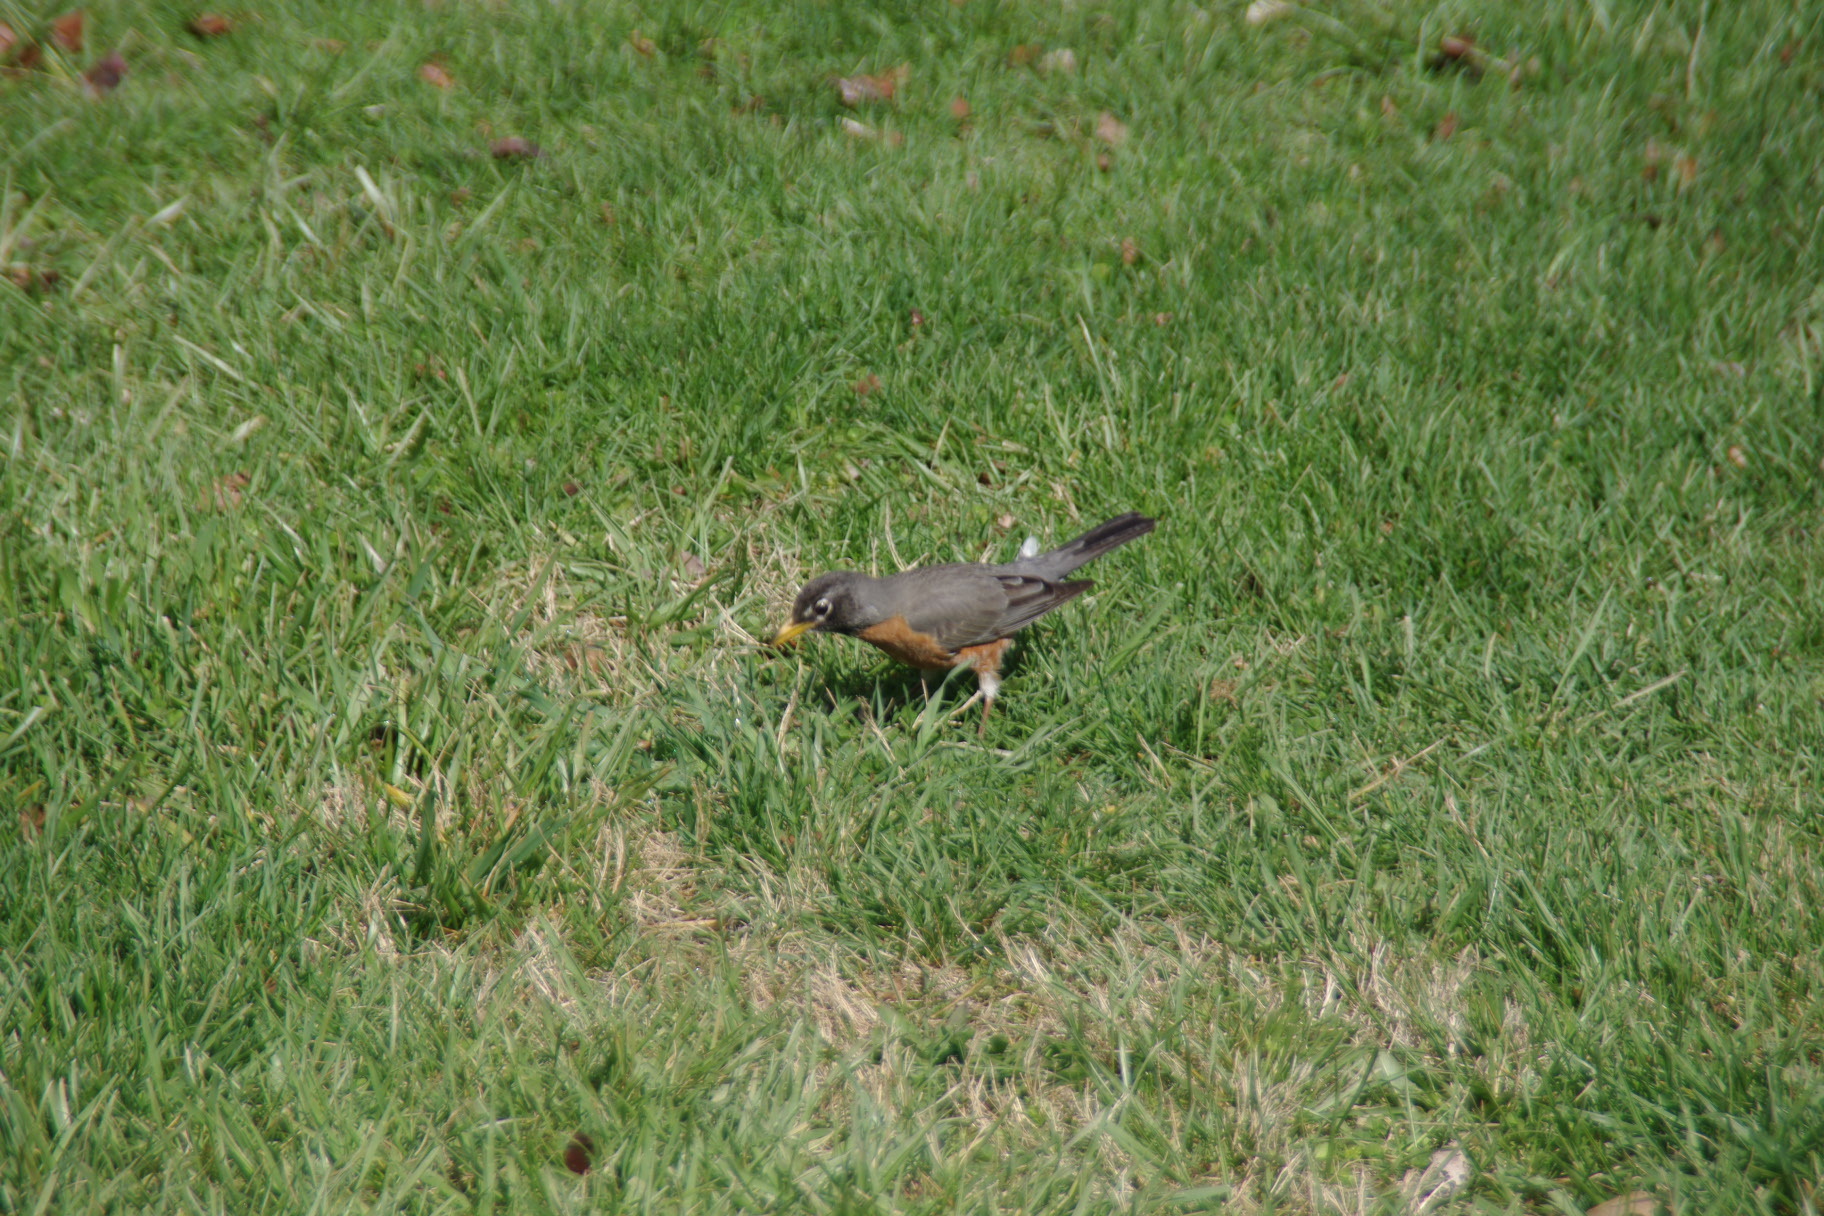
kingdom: Animalia
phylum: Chordata
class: Aves
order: Passeriformes
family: Turdidae
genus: Turdus
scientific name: Turdus migratorius
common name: American robin
